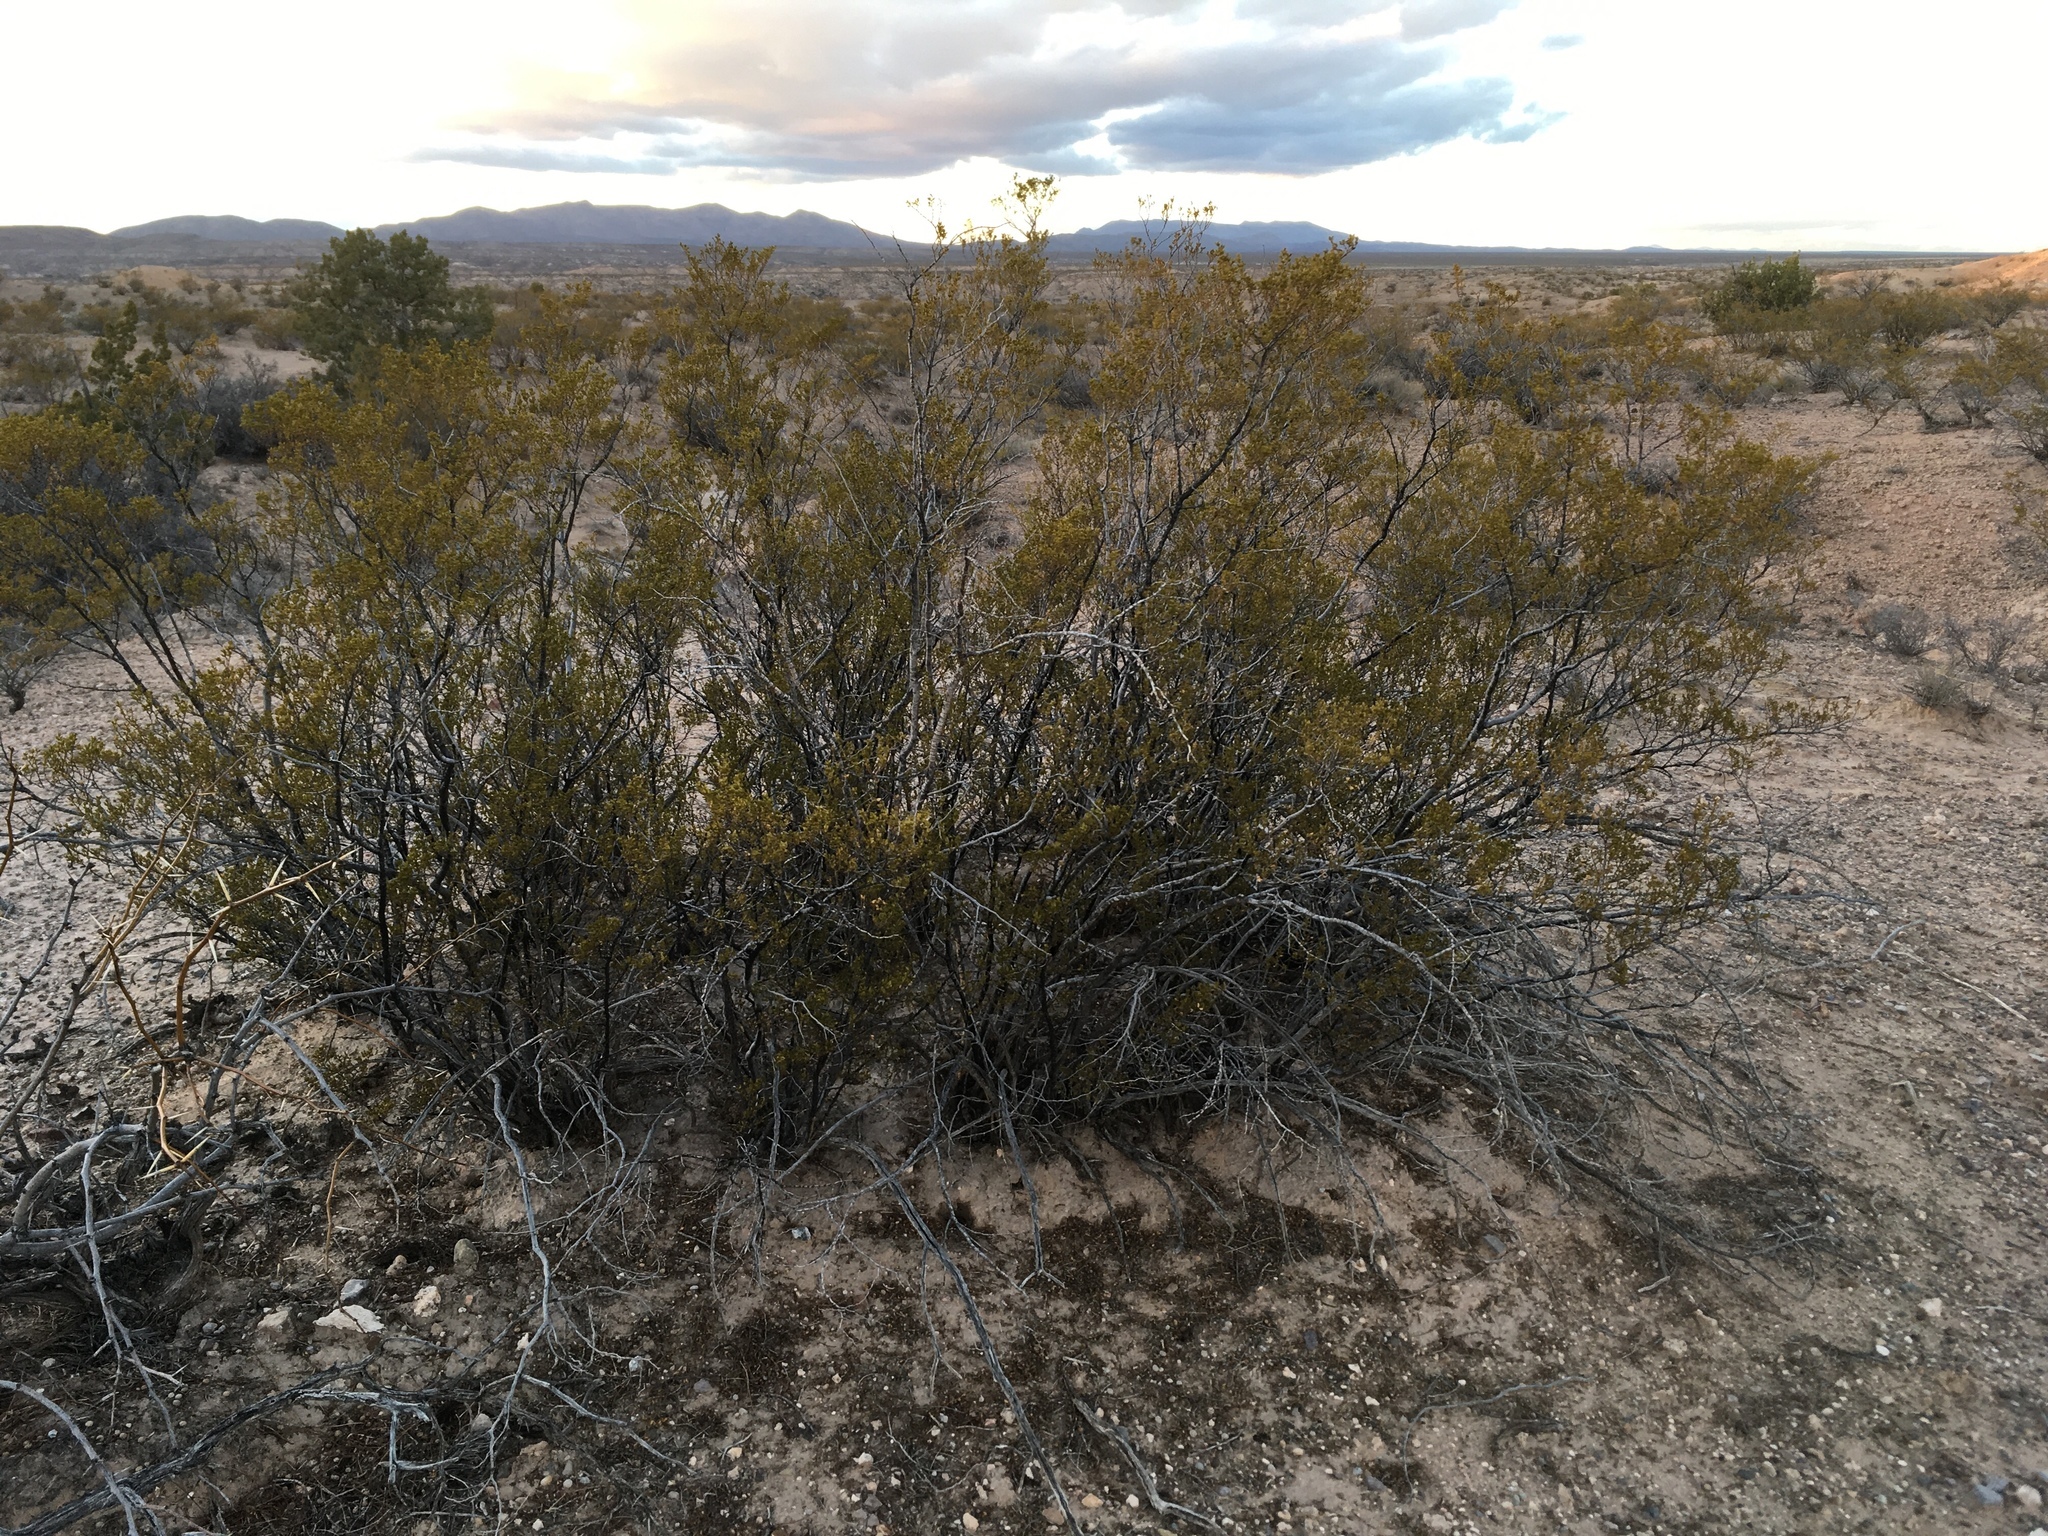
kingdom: Plantae
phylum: Tracheophyta
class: Magnoliopsida
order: Zygophyllales
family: Zygophyllaceae
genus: Larrea
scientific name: Larrea tridentata
